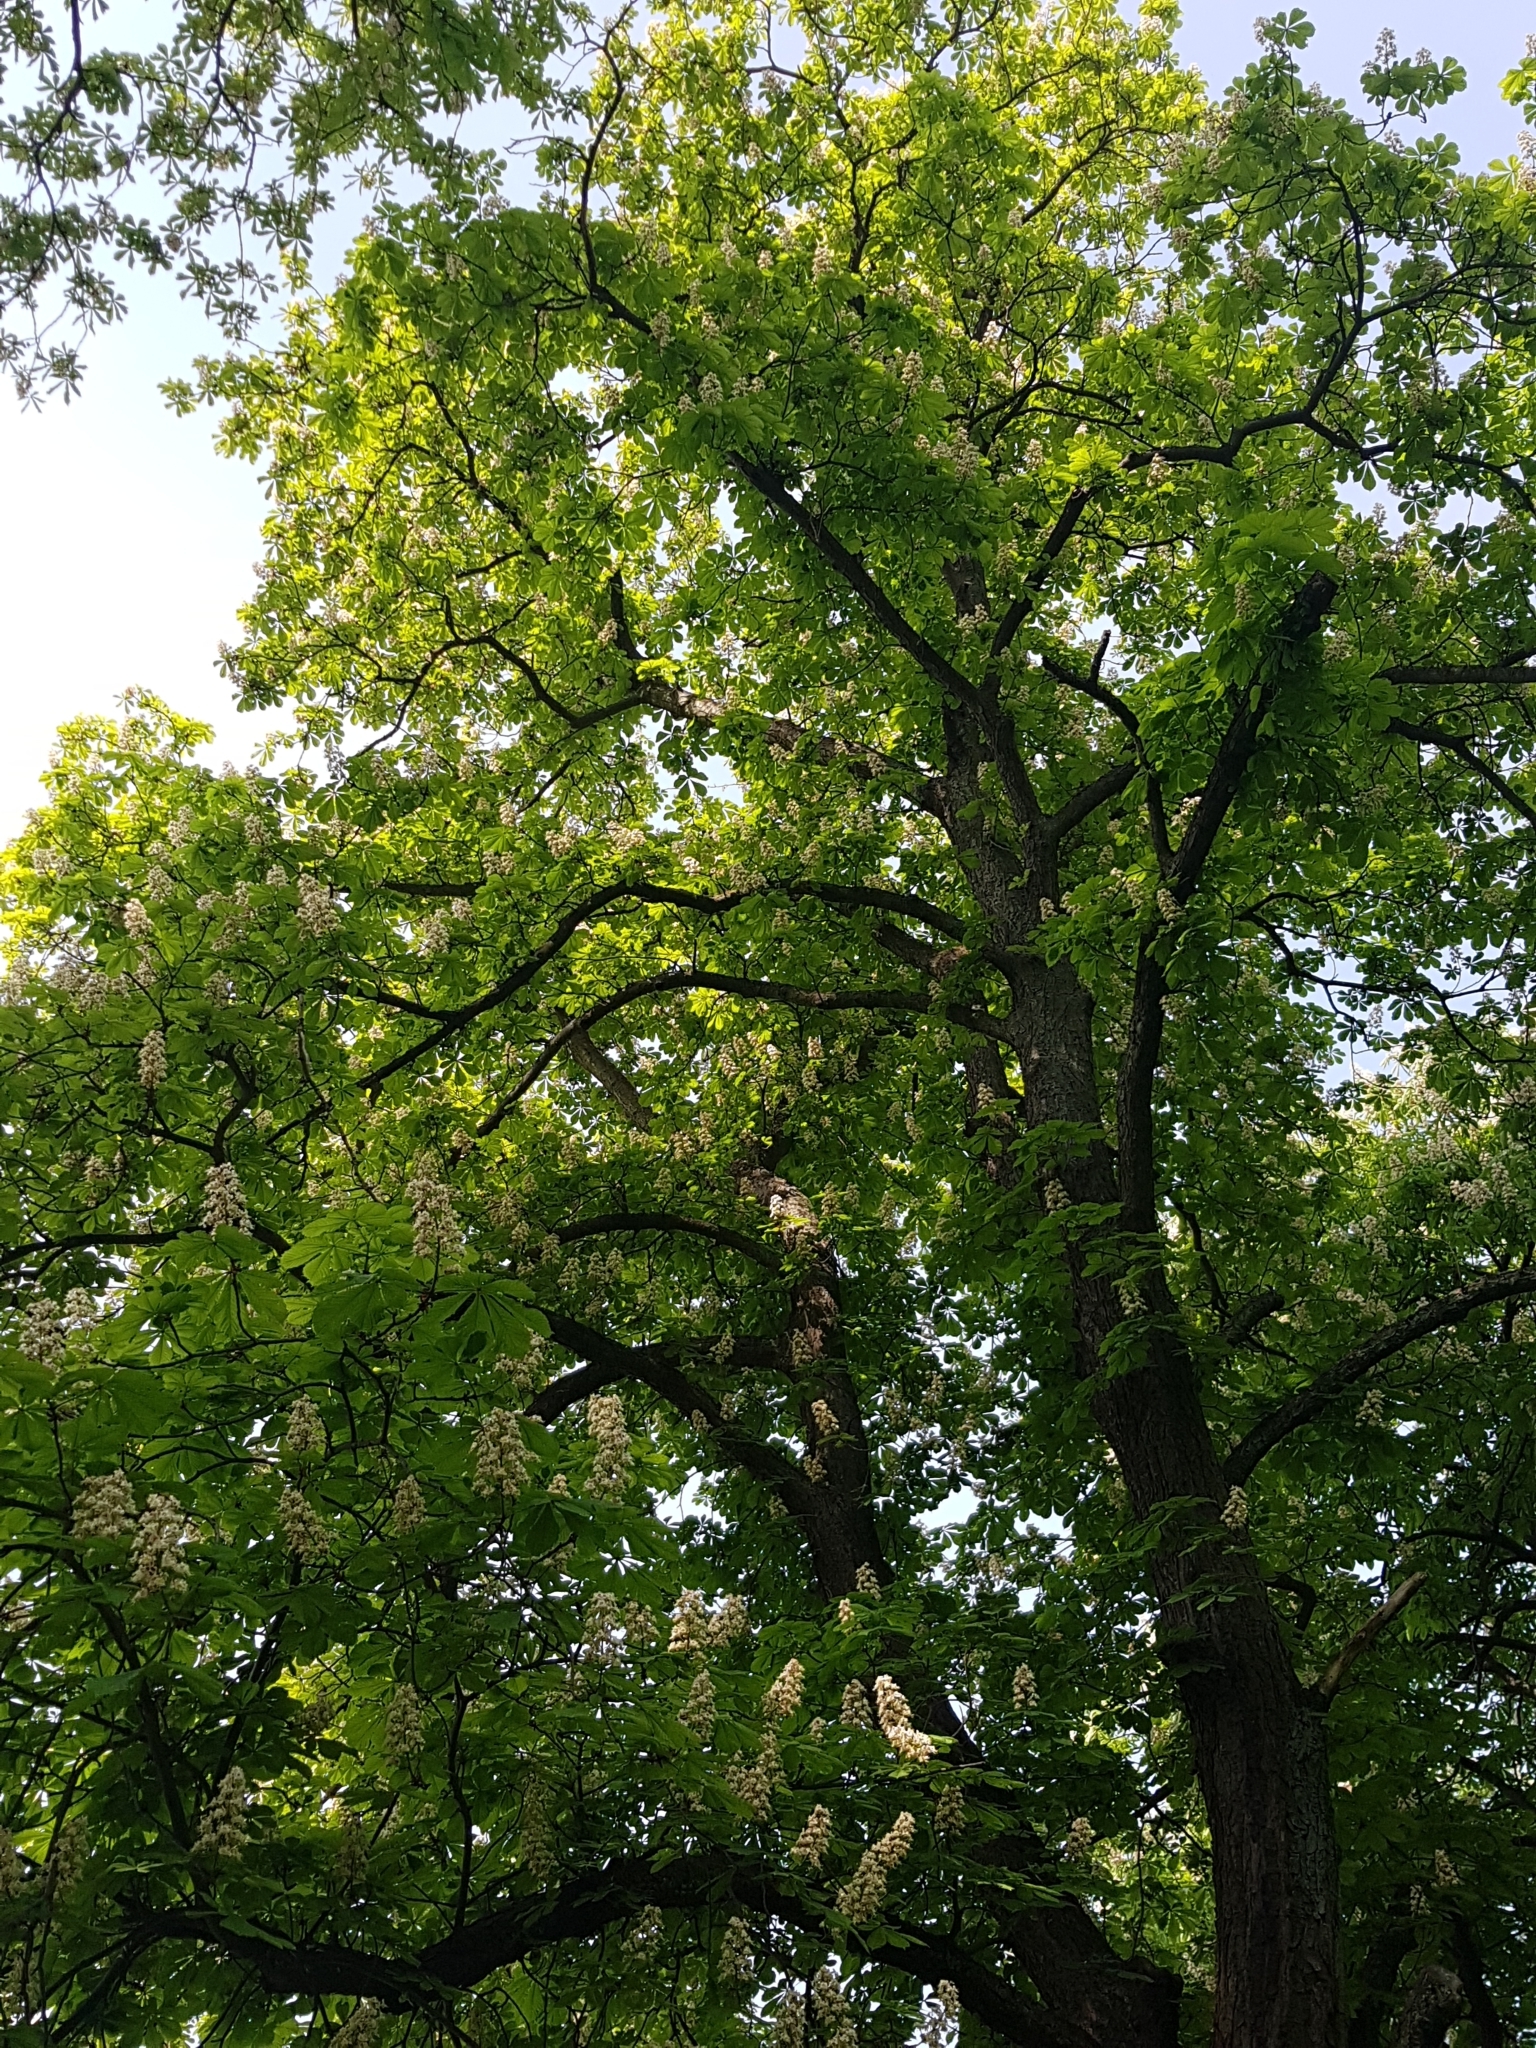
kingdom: Plantae
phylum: Tracheophyta
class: Magnoliopsida
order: Sapindales
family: Sapindaceae
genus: Aesculus
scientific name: Aesculus hippocastanum
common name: Horse-chestnut
